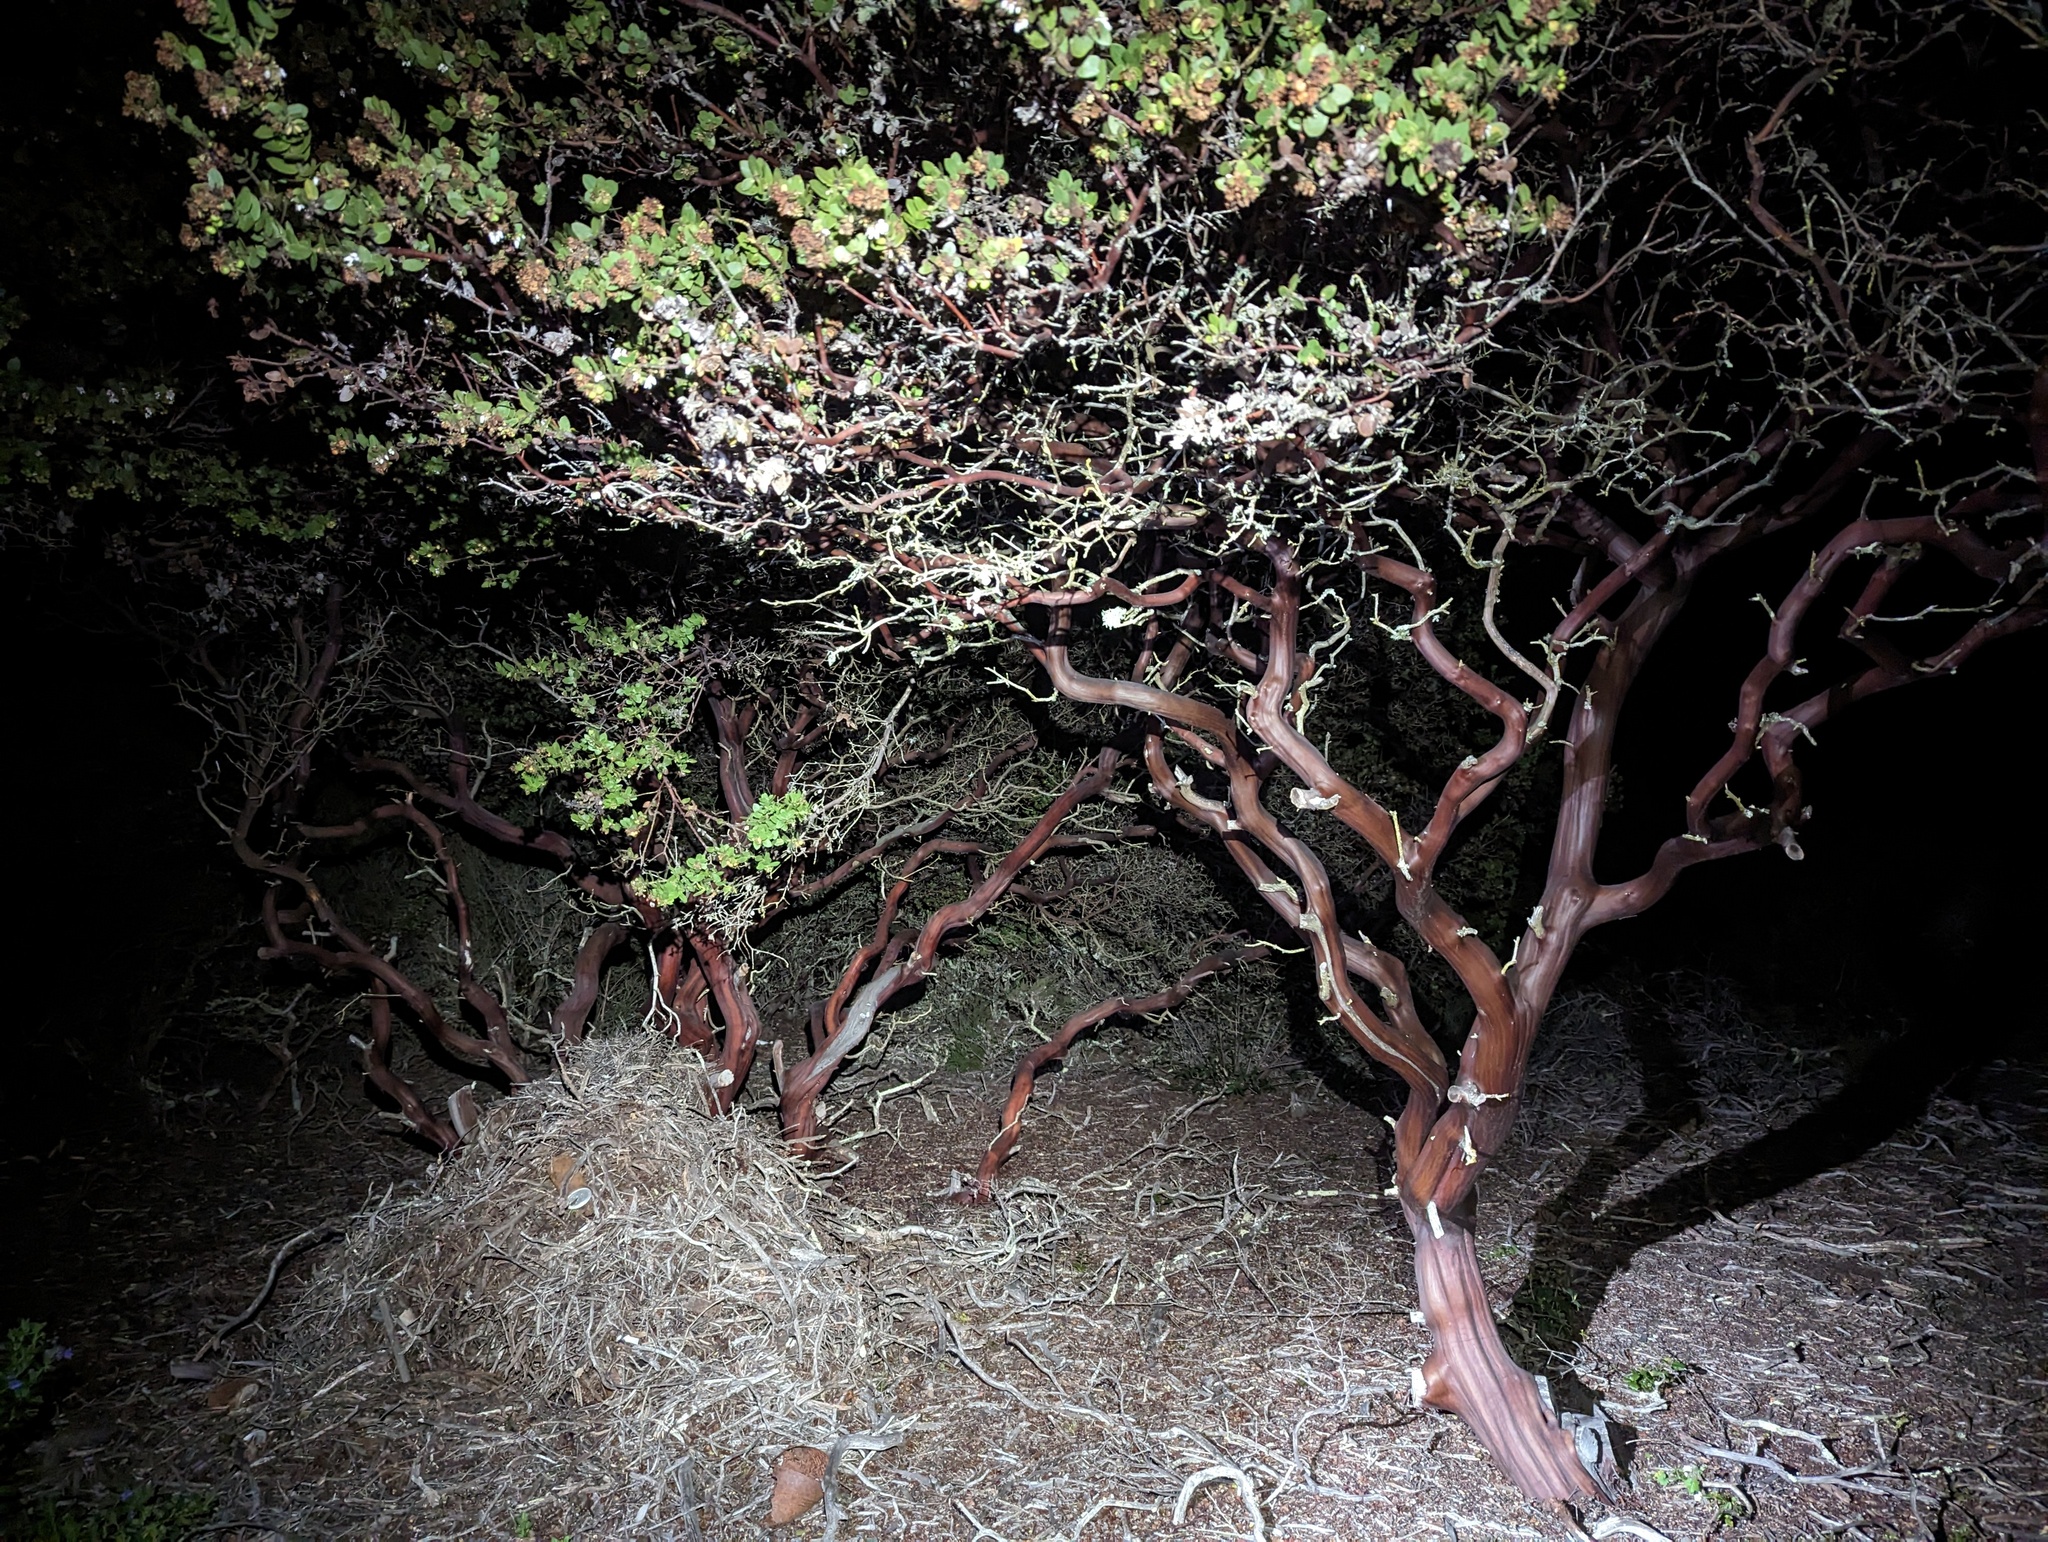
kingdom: Plantae
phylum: Tracheophyta
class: Magnoliopsida
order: Ericales
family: Ericaceae
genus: Arctostaphylos
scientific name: Arctostaphylos purissima
